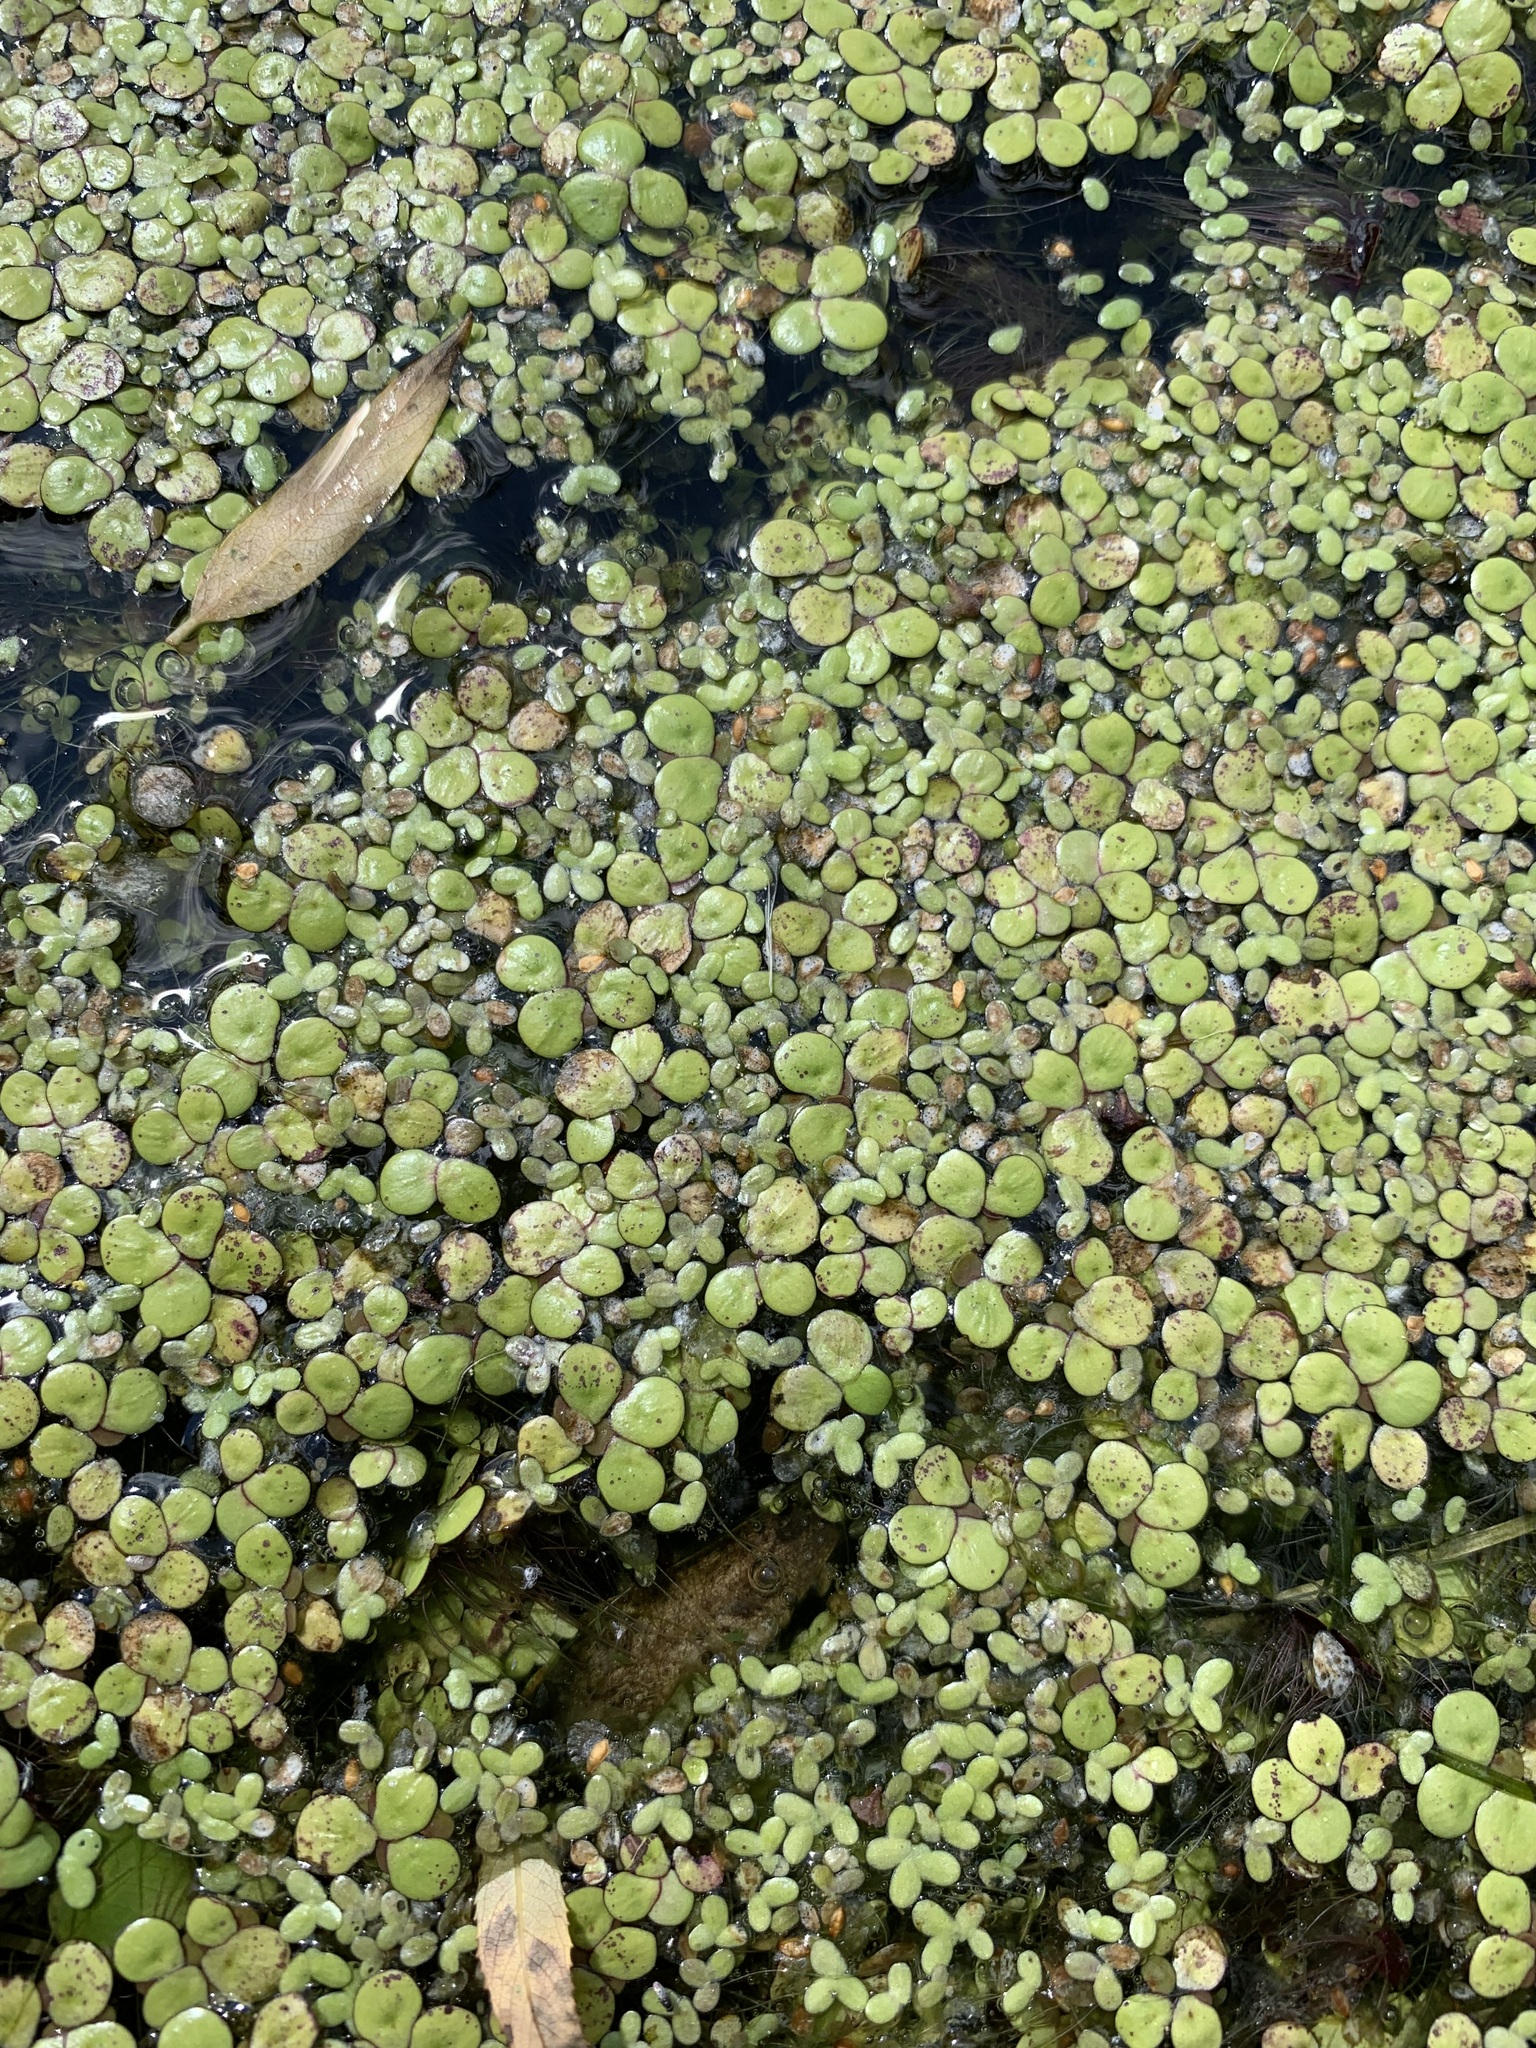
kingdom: Plantae
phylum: Tracheophyta
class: Liliopsida
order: Alismatales
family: Araceae
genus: Spirodela
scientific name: Spirodela polyrhiza
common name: Great duckweed
